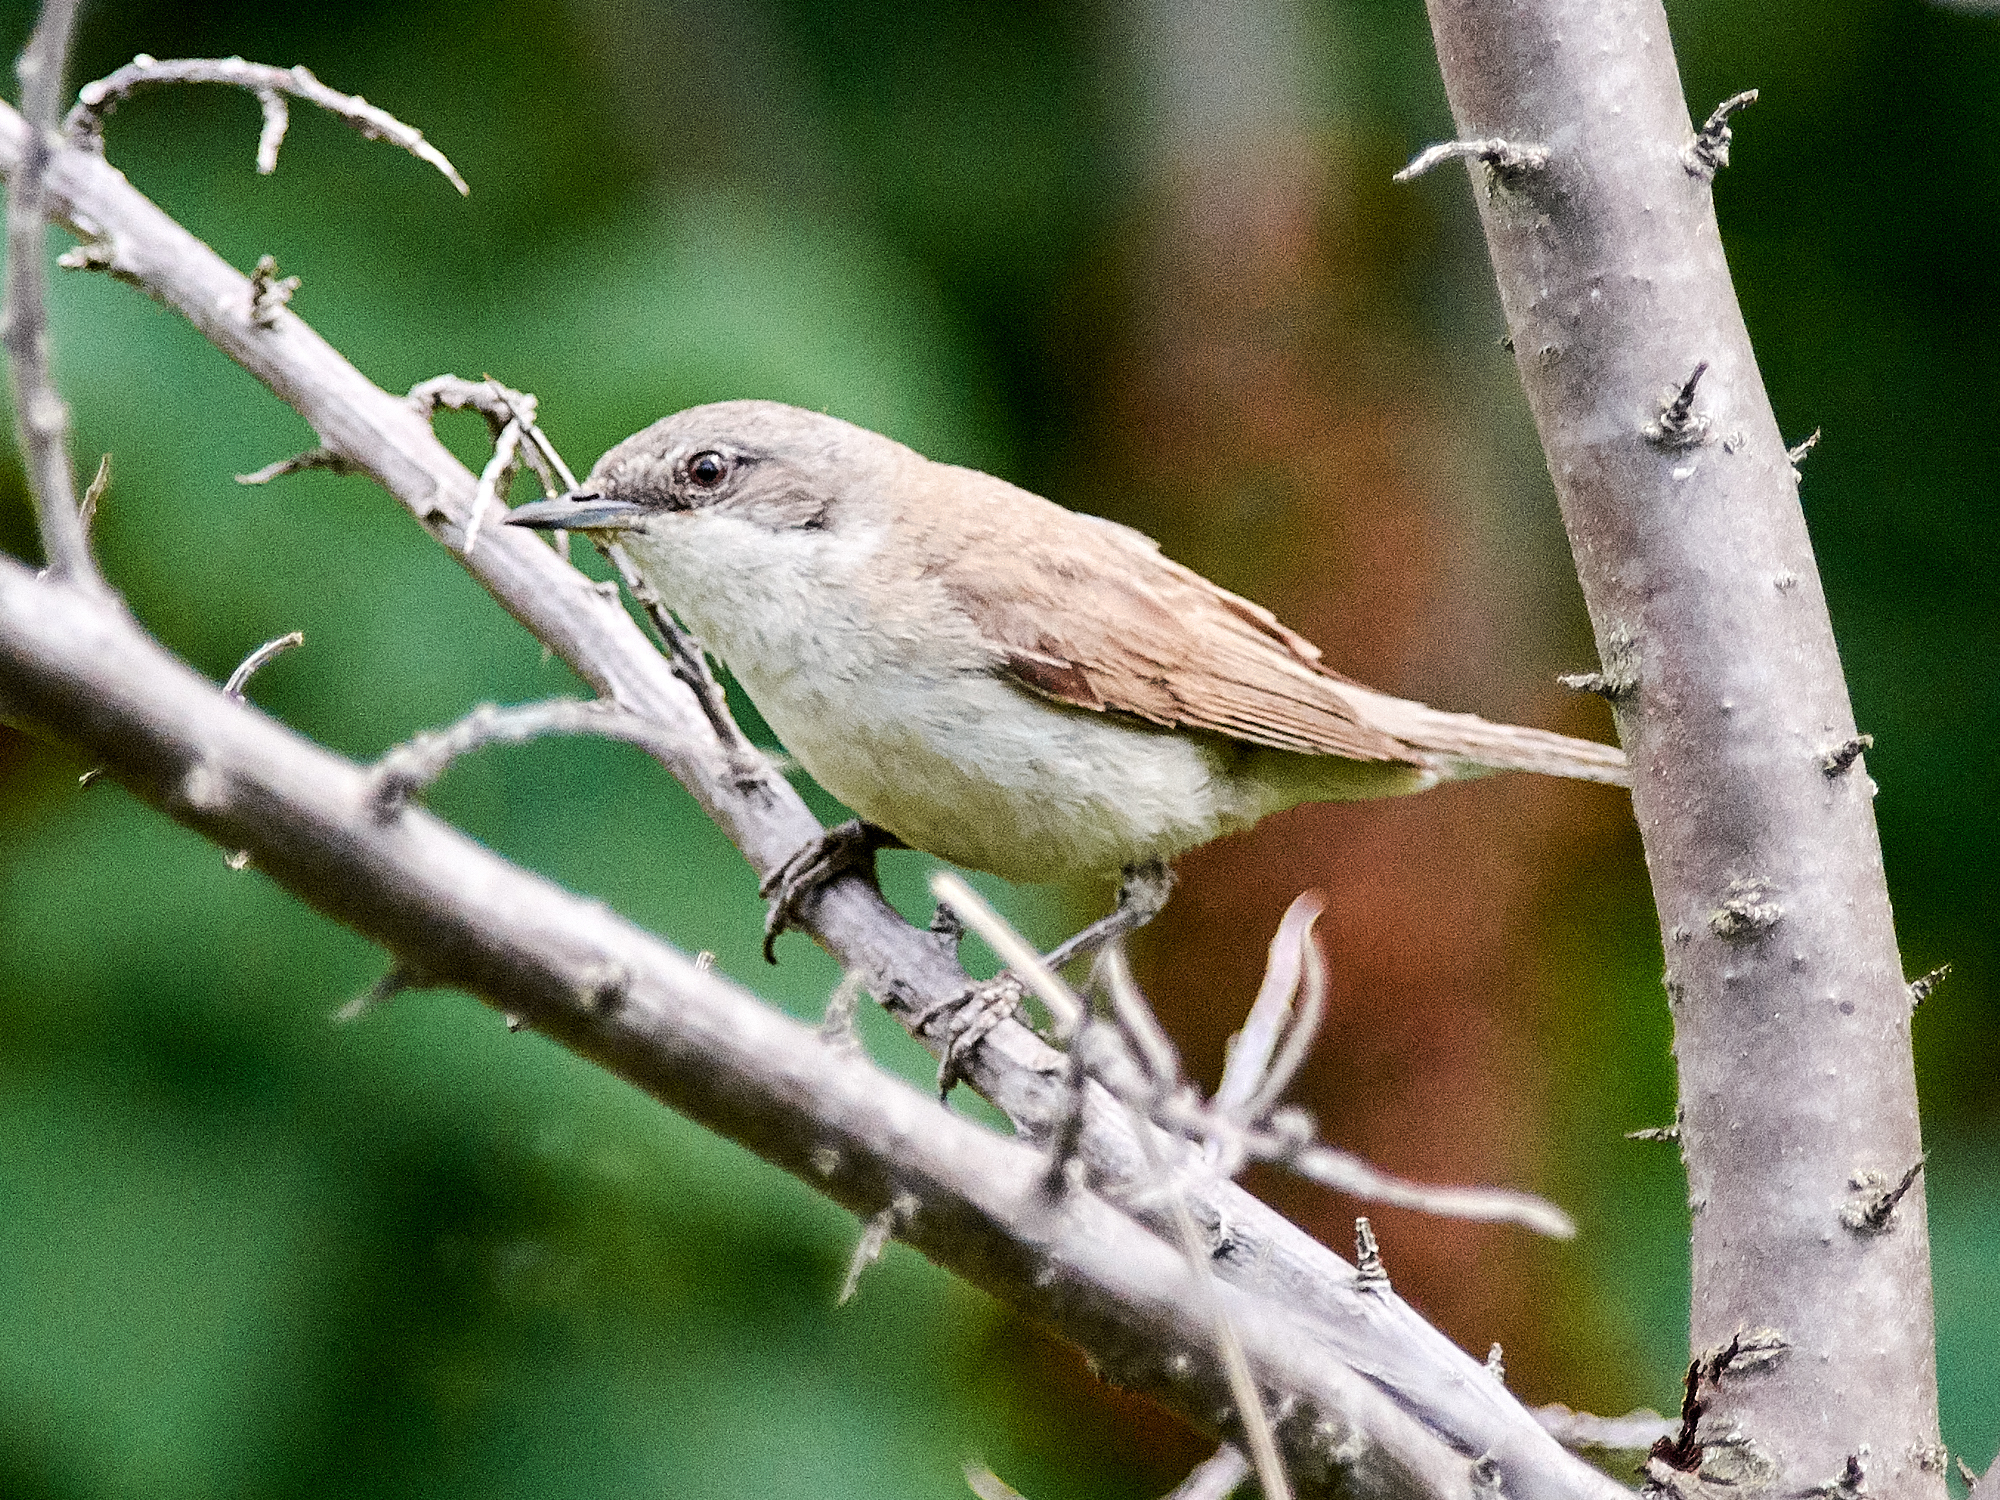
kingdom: Animalia
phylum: Chordata
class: Aves
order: Passeriformes
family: Sylviidae
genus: Sylvia
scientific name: Sylvia curruca
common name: Lesser whitethroat
